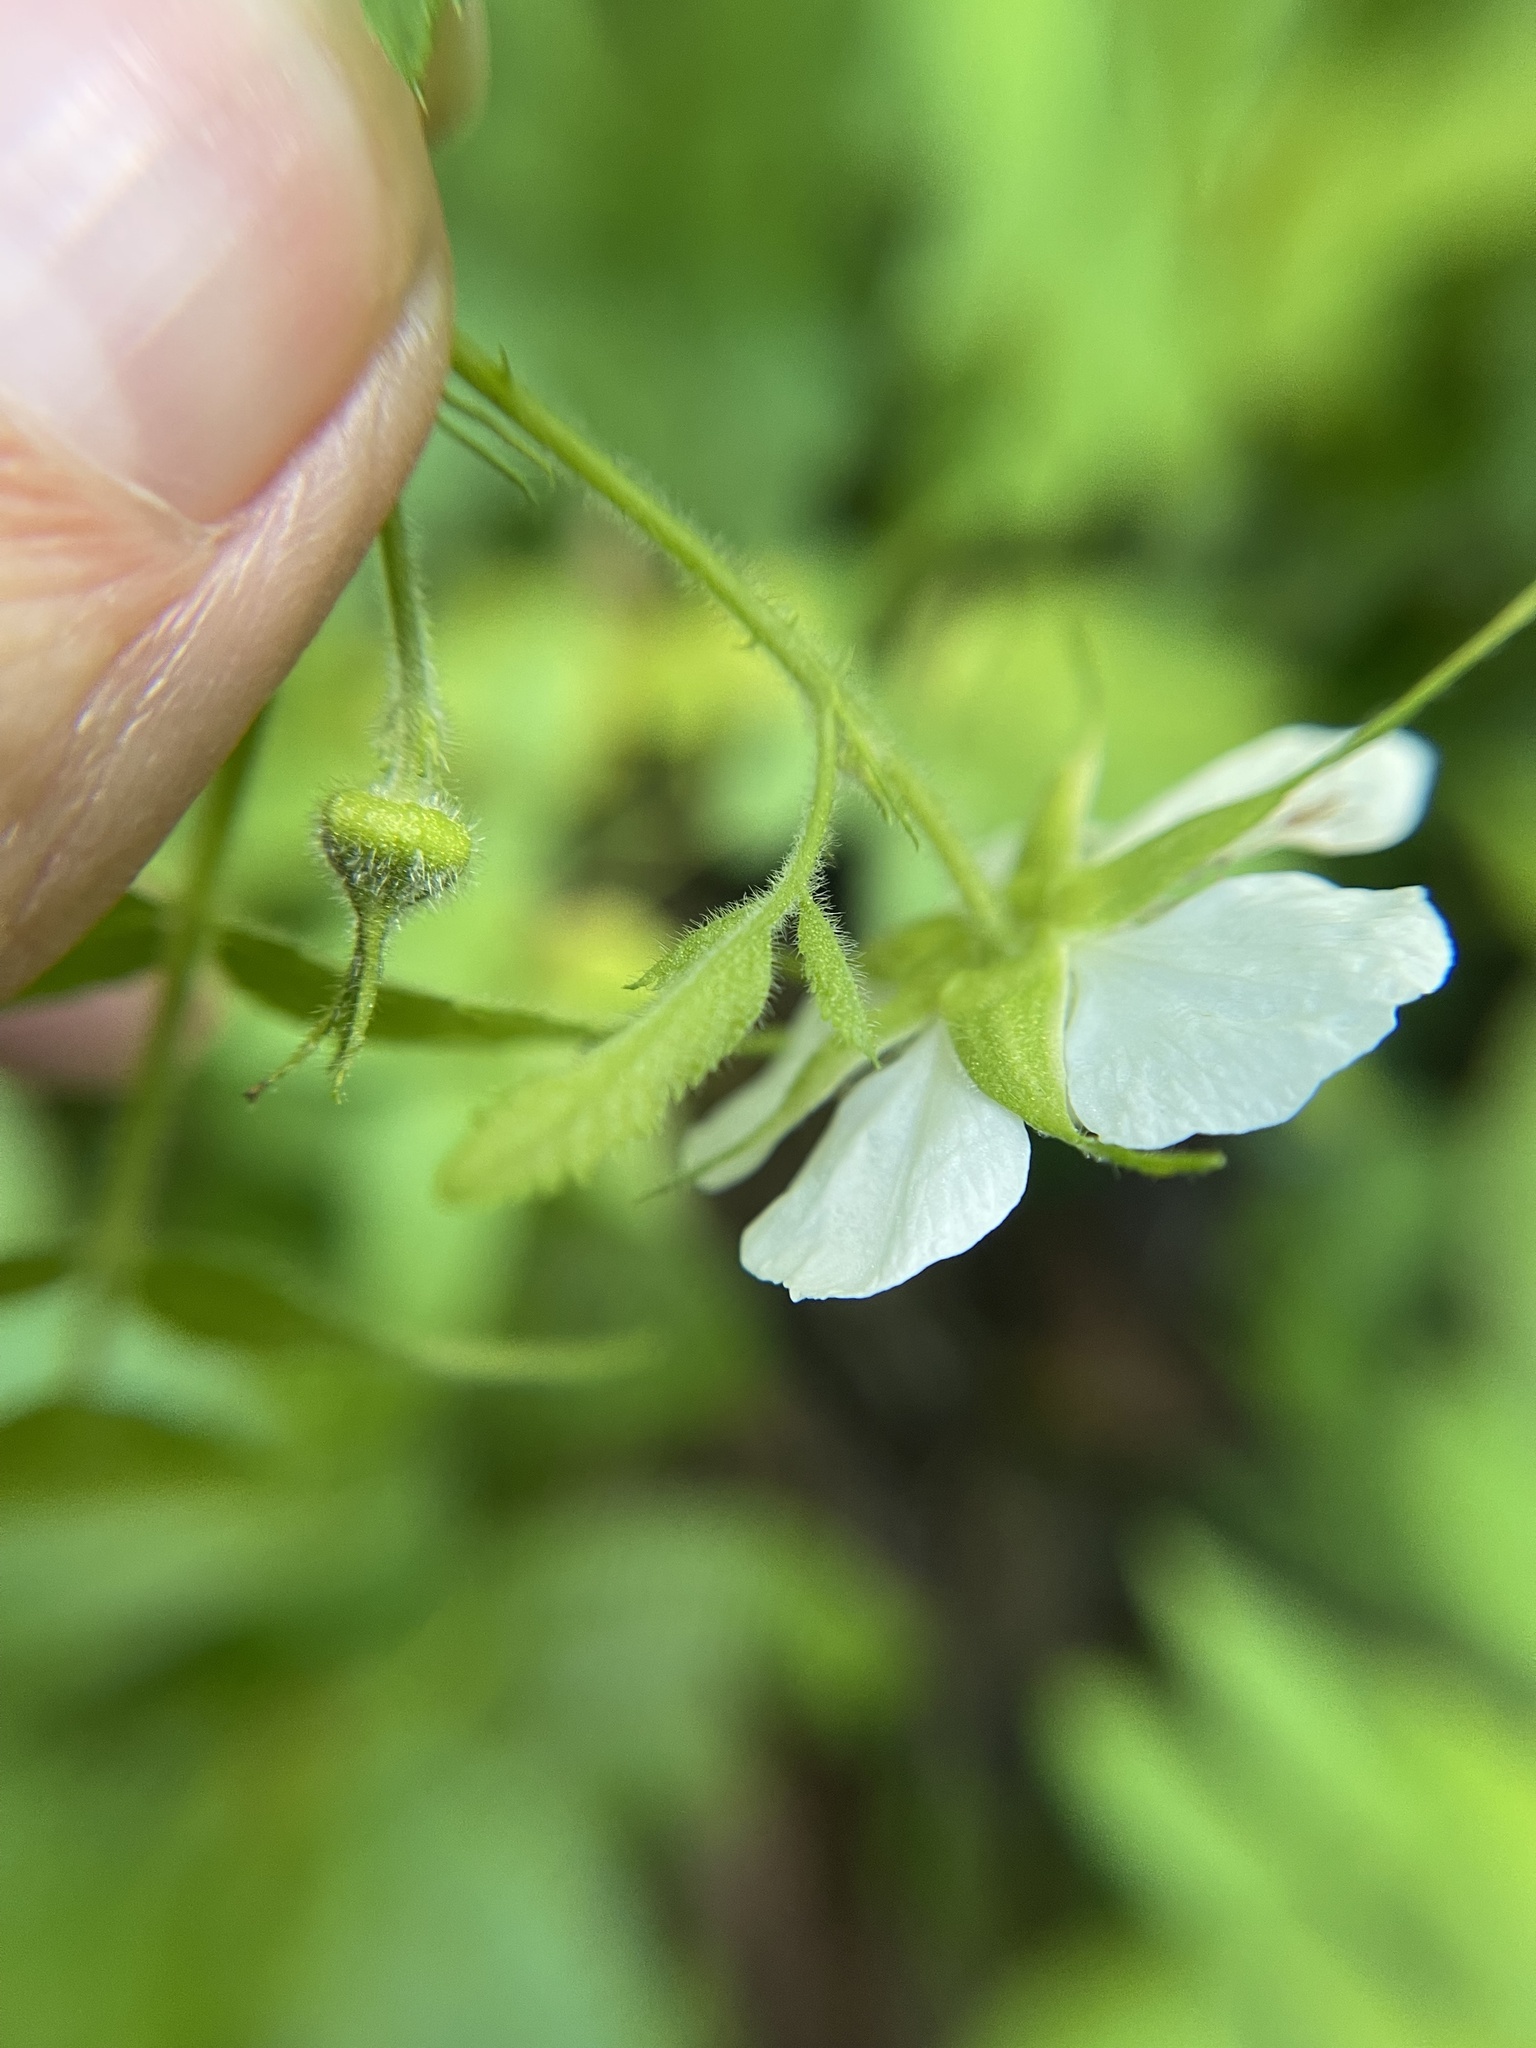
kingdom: Plantae
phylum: Tracheophyta
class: Magnoliopsida
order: Rosales
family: Rosaceae
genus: Rubus
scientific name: Rubus rosifolius
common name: Roseleaf raspberry
